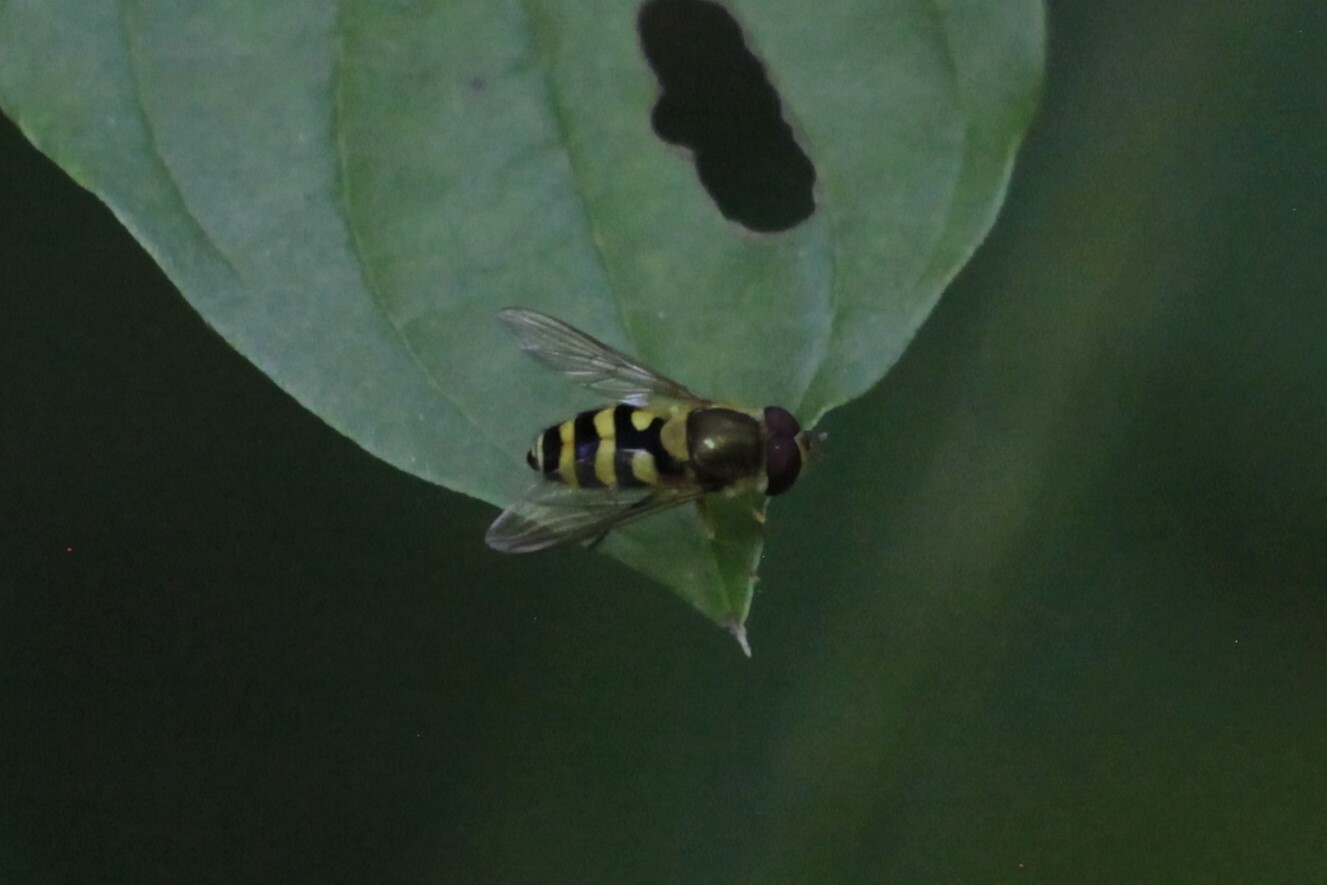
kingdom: Animalia
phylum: Arthropoda
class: Insecta
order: Diptera
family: Syrphidae
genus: Syrphus
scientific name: Syrphus
